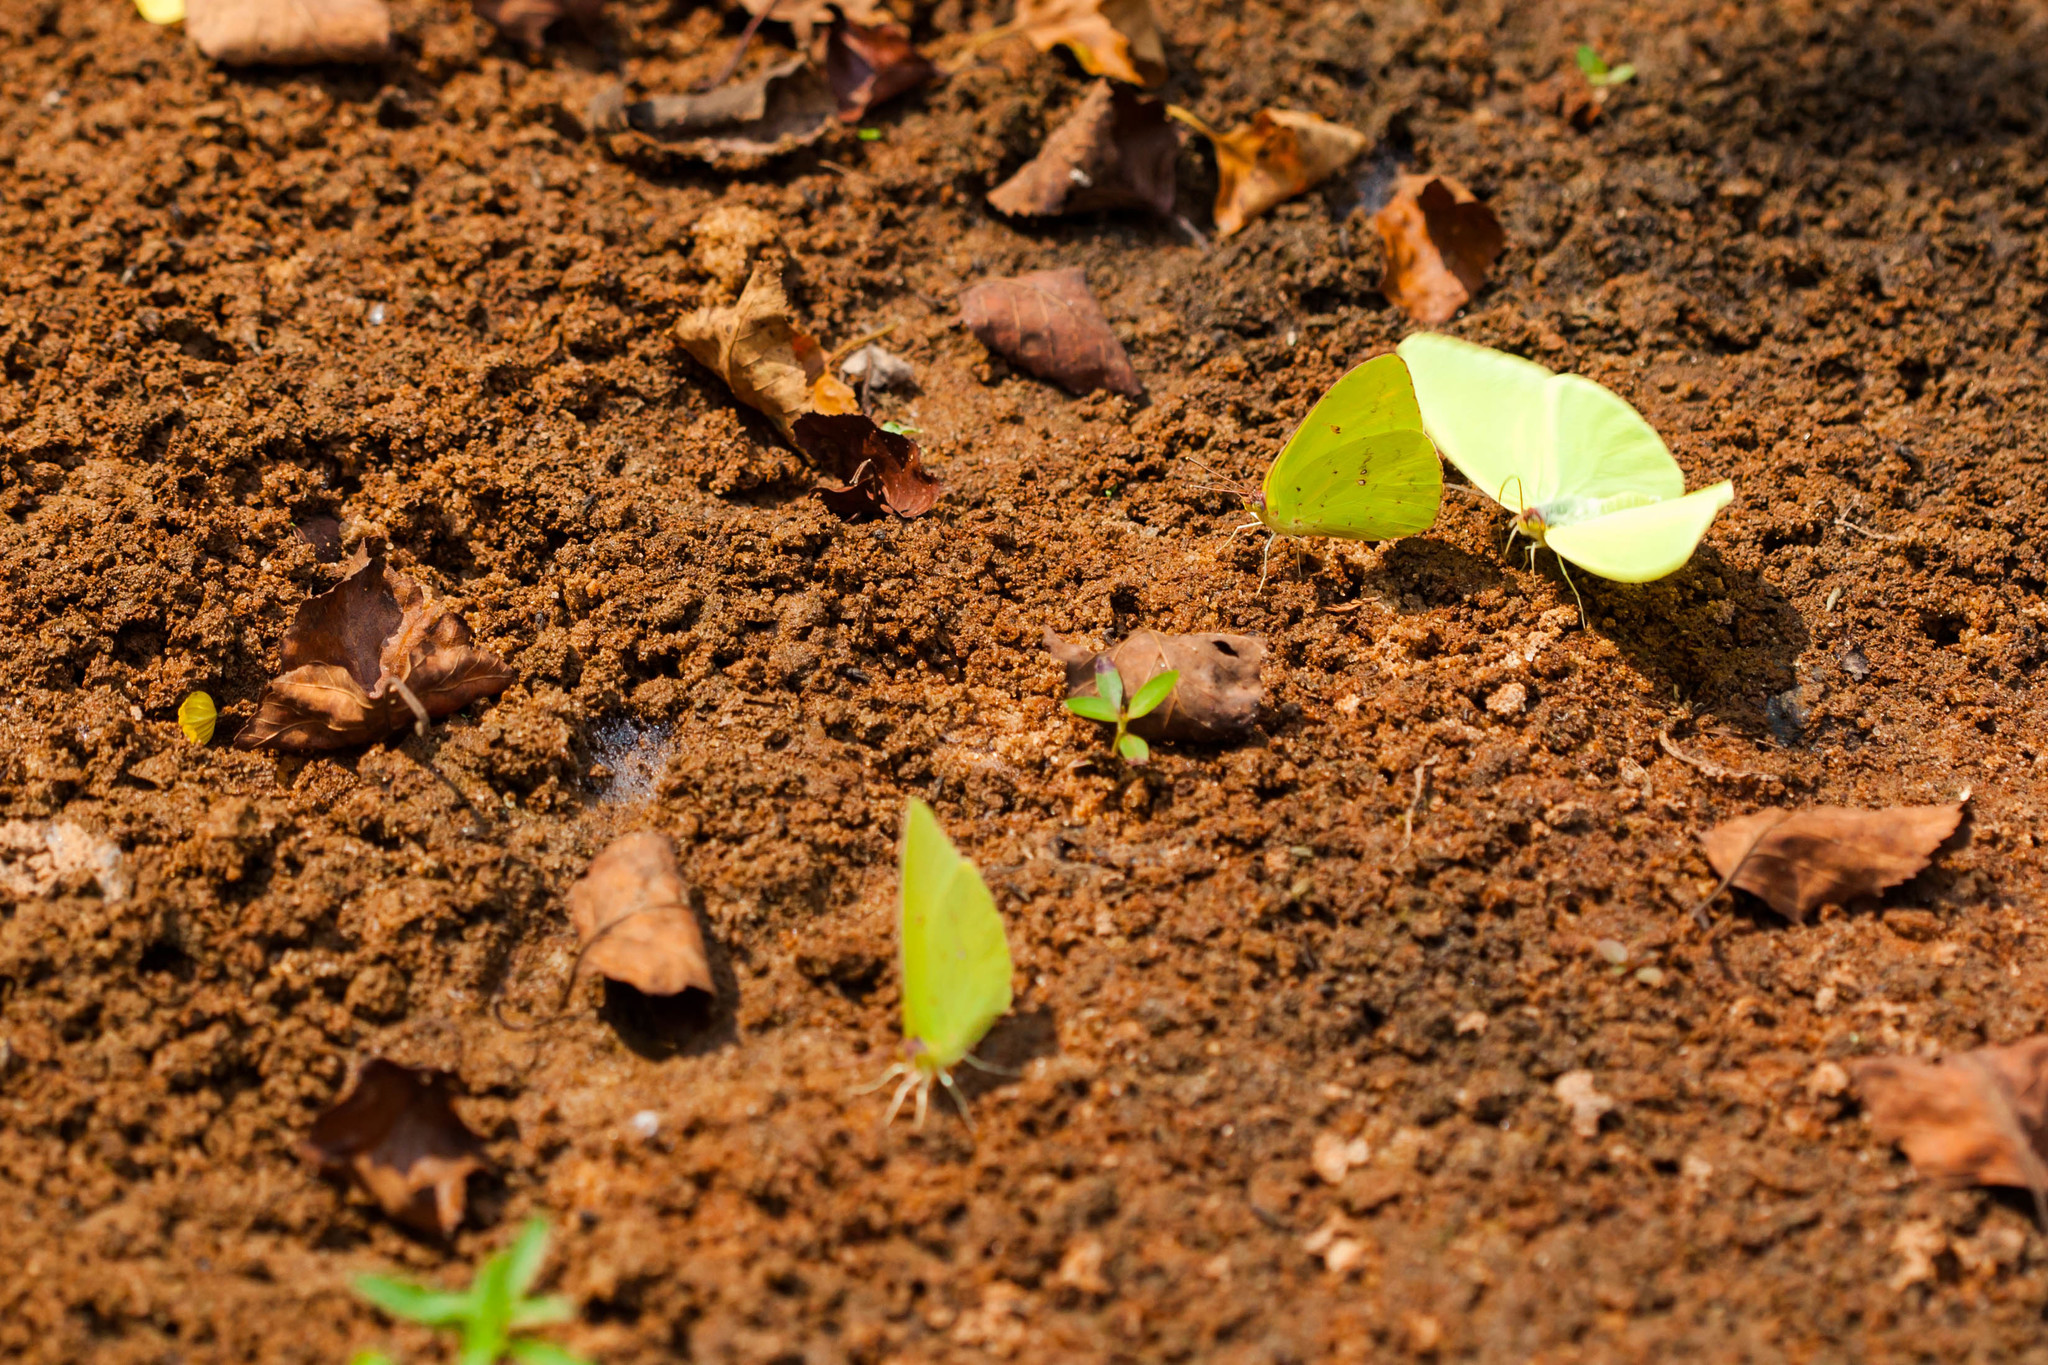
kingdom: Animalia
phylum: Arthropoda
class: Insecta
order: Lepidoptera
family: Pieridae
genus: Phoebis
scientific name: Phoebis sennae
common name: Cloudless sulphur
